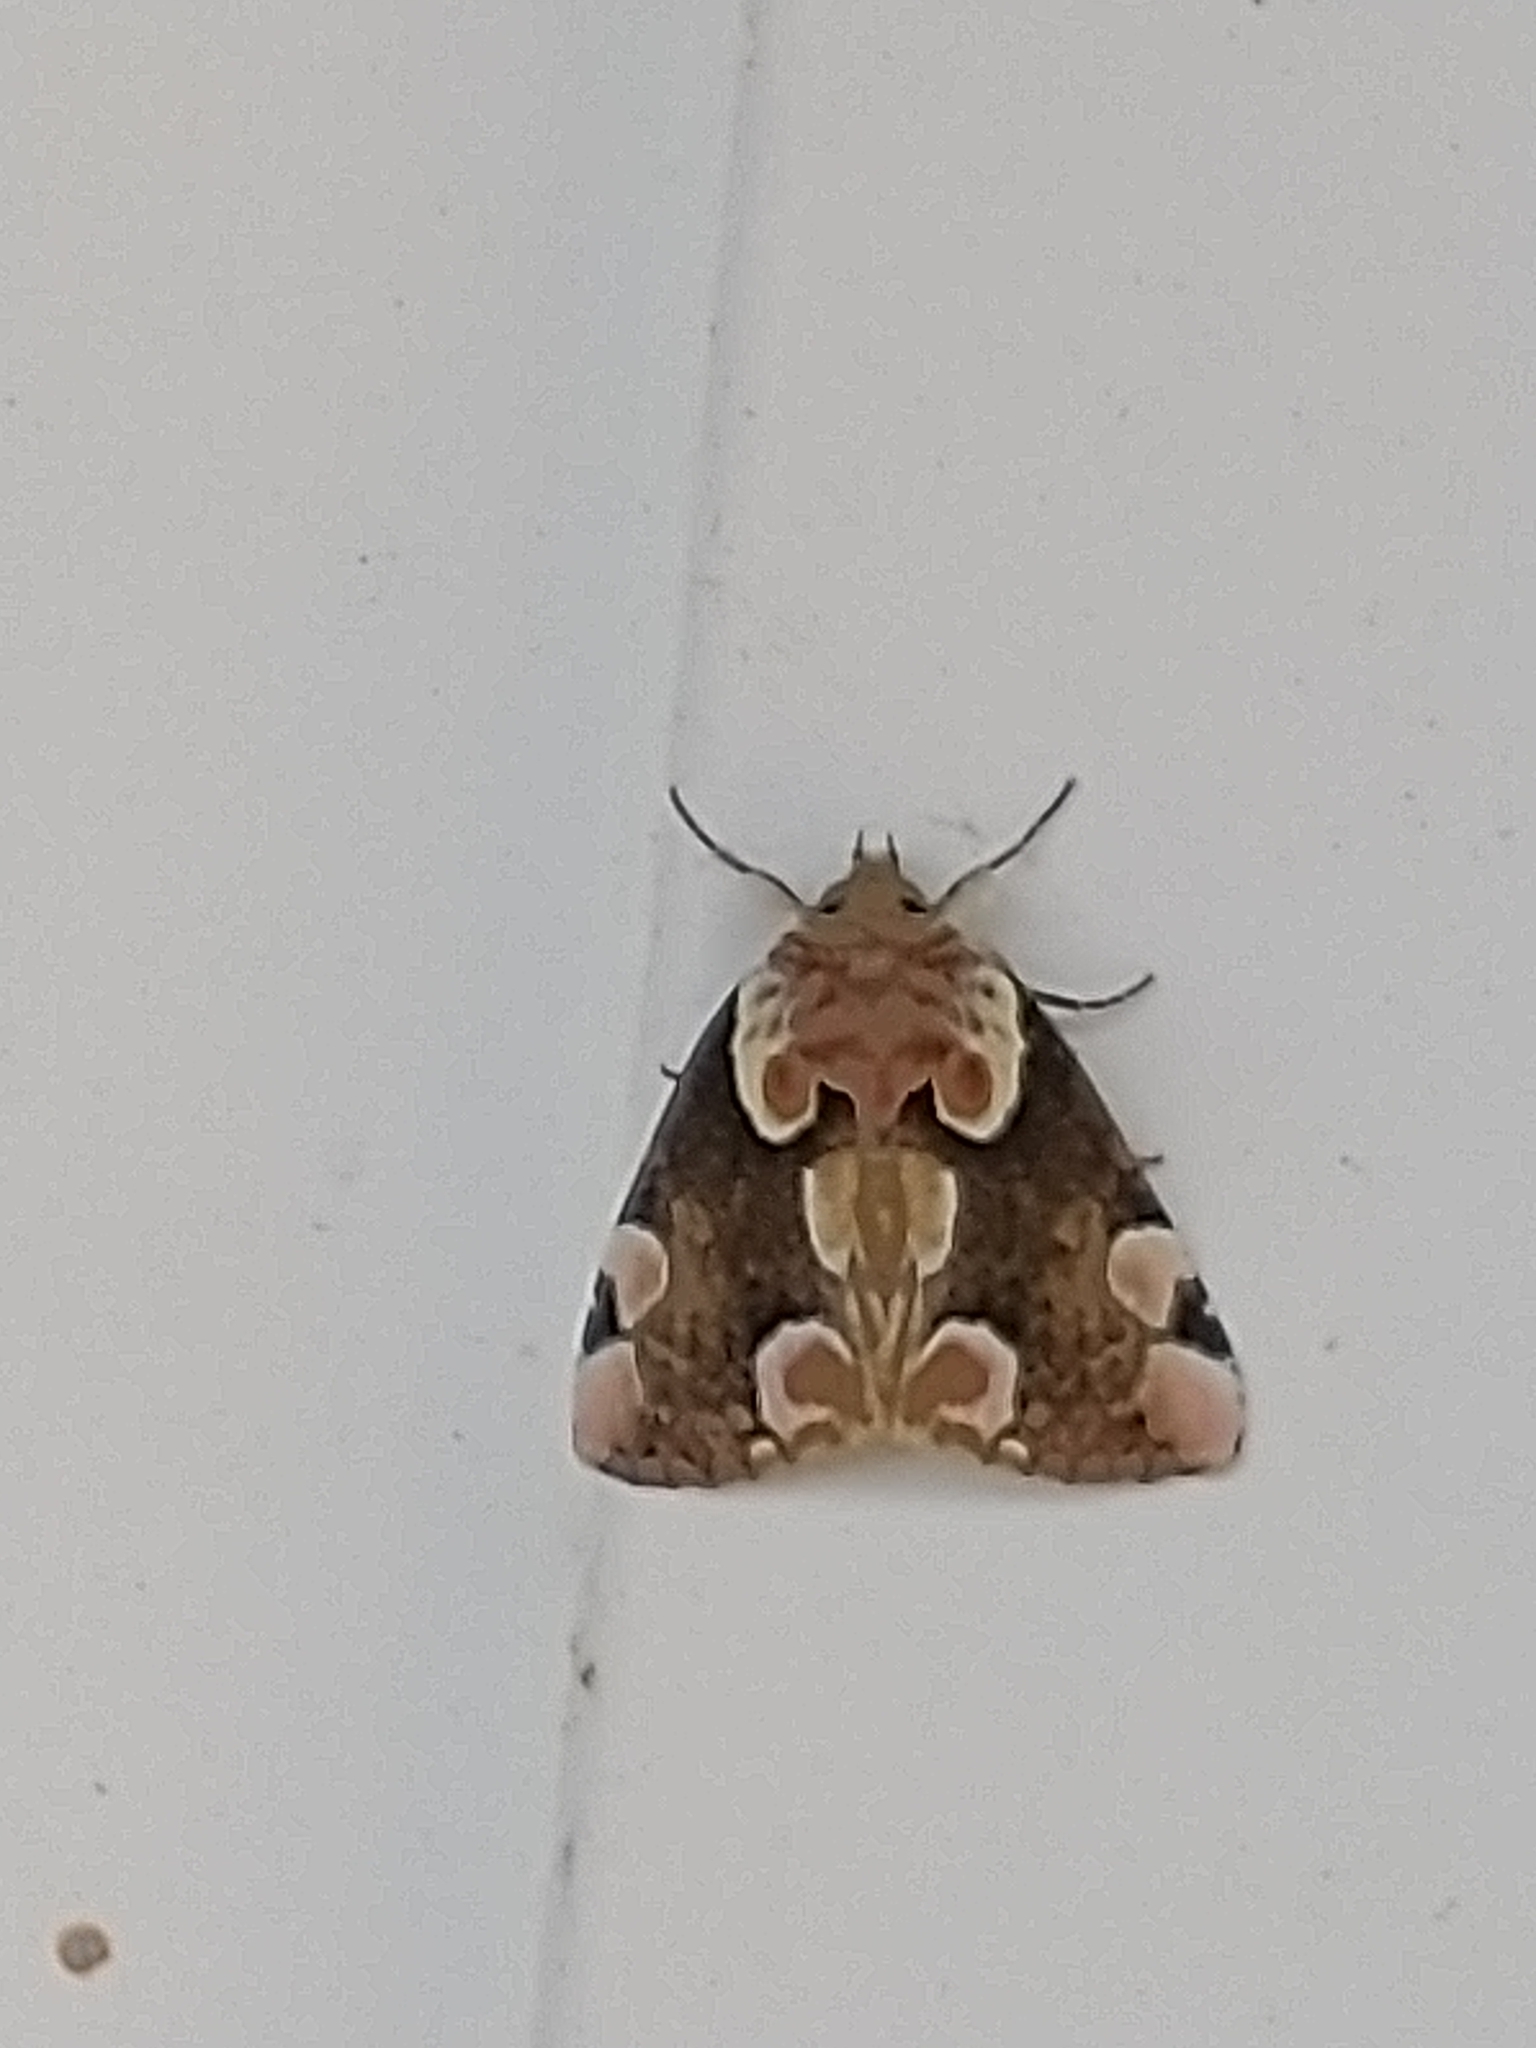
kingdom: Animalia
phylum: Arthropoda
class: Insecta
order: Lepidoptera
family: Drepanidae
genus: Thyatira
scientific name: Thyatira batis
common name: Peach blossom
